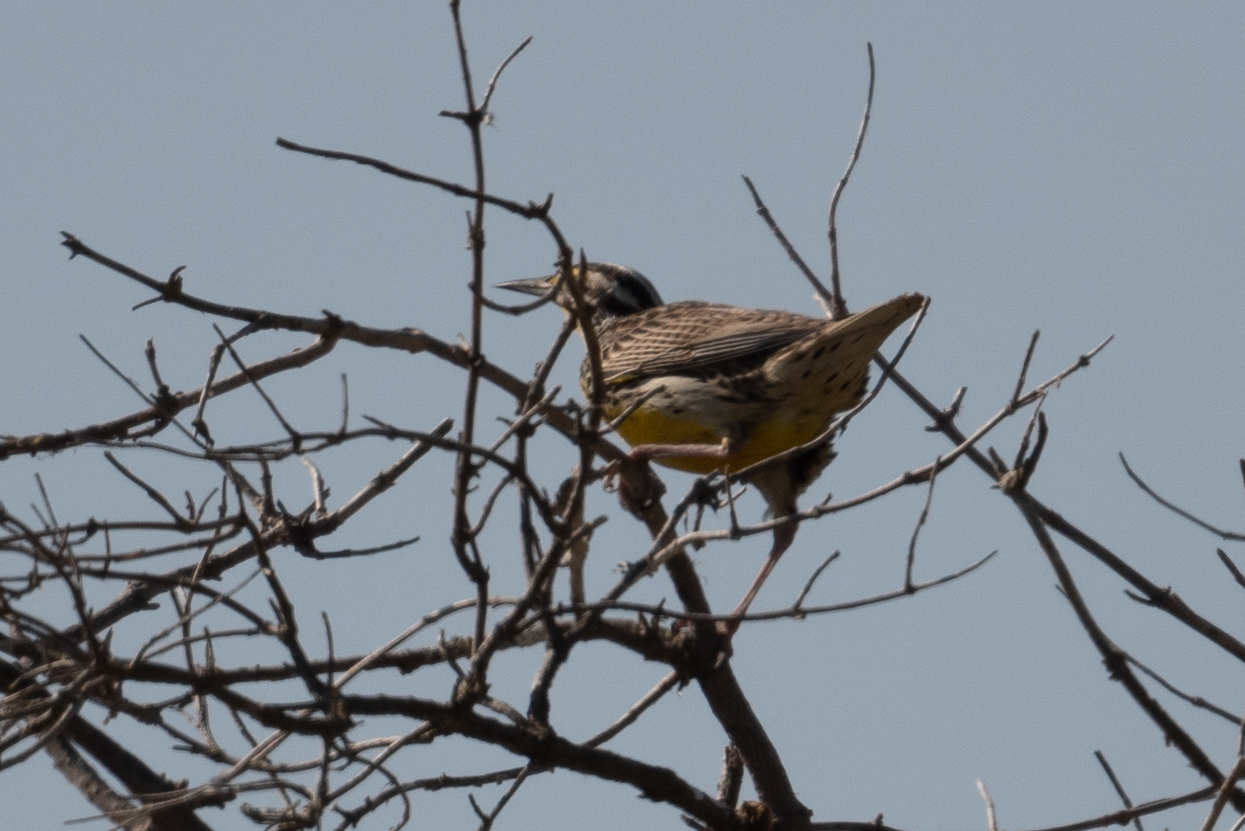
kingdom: Animalia
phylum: Chordata
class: Aves
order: Passeriformes
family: Icteridae
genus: Sturnella
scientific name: Sturnella neglecta
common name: Western meadowlark
